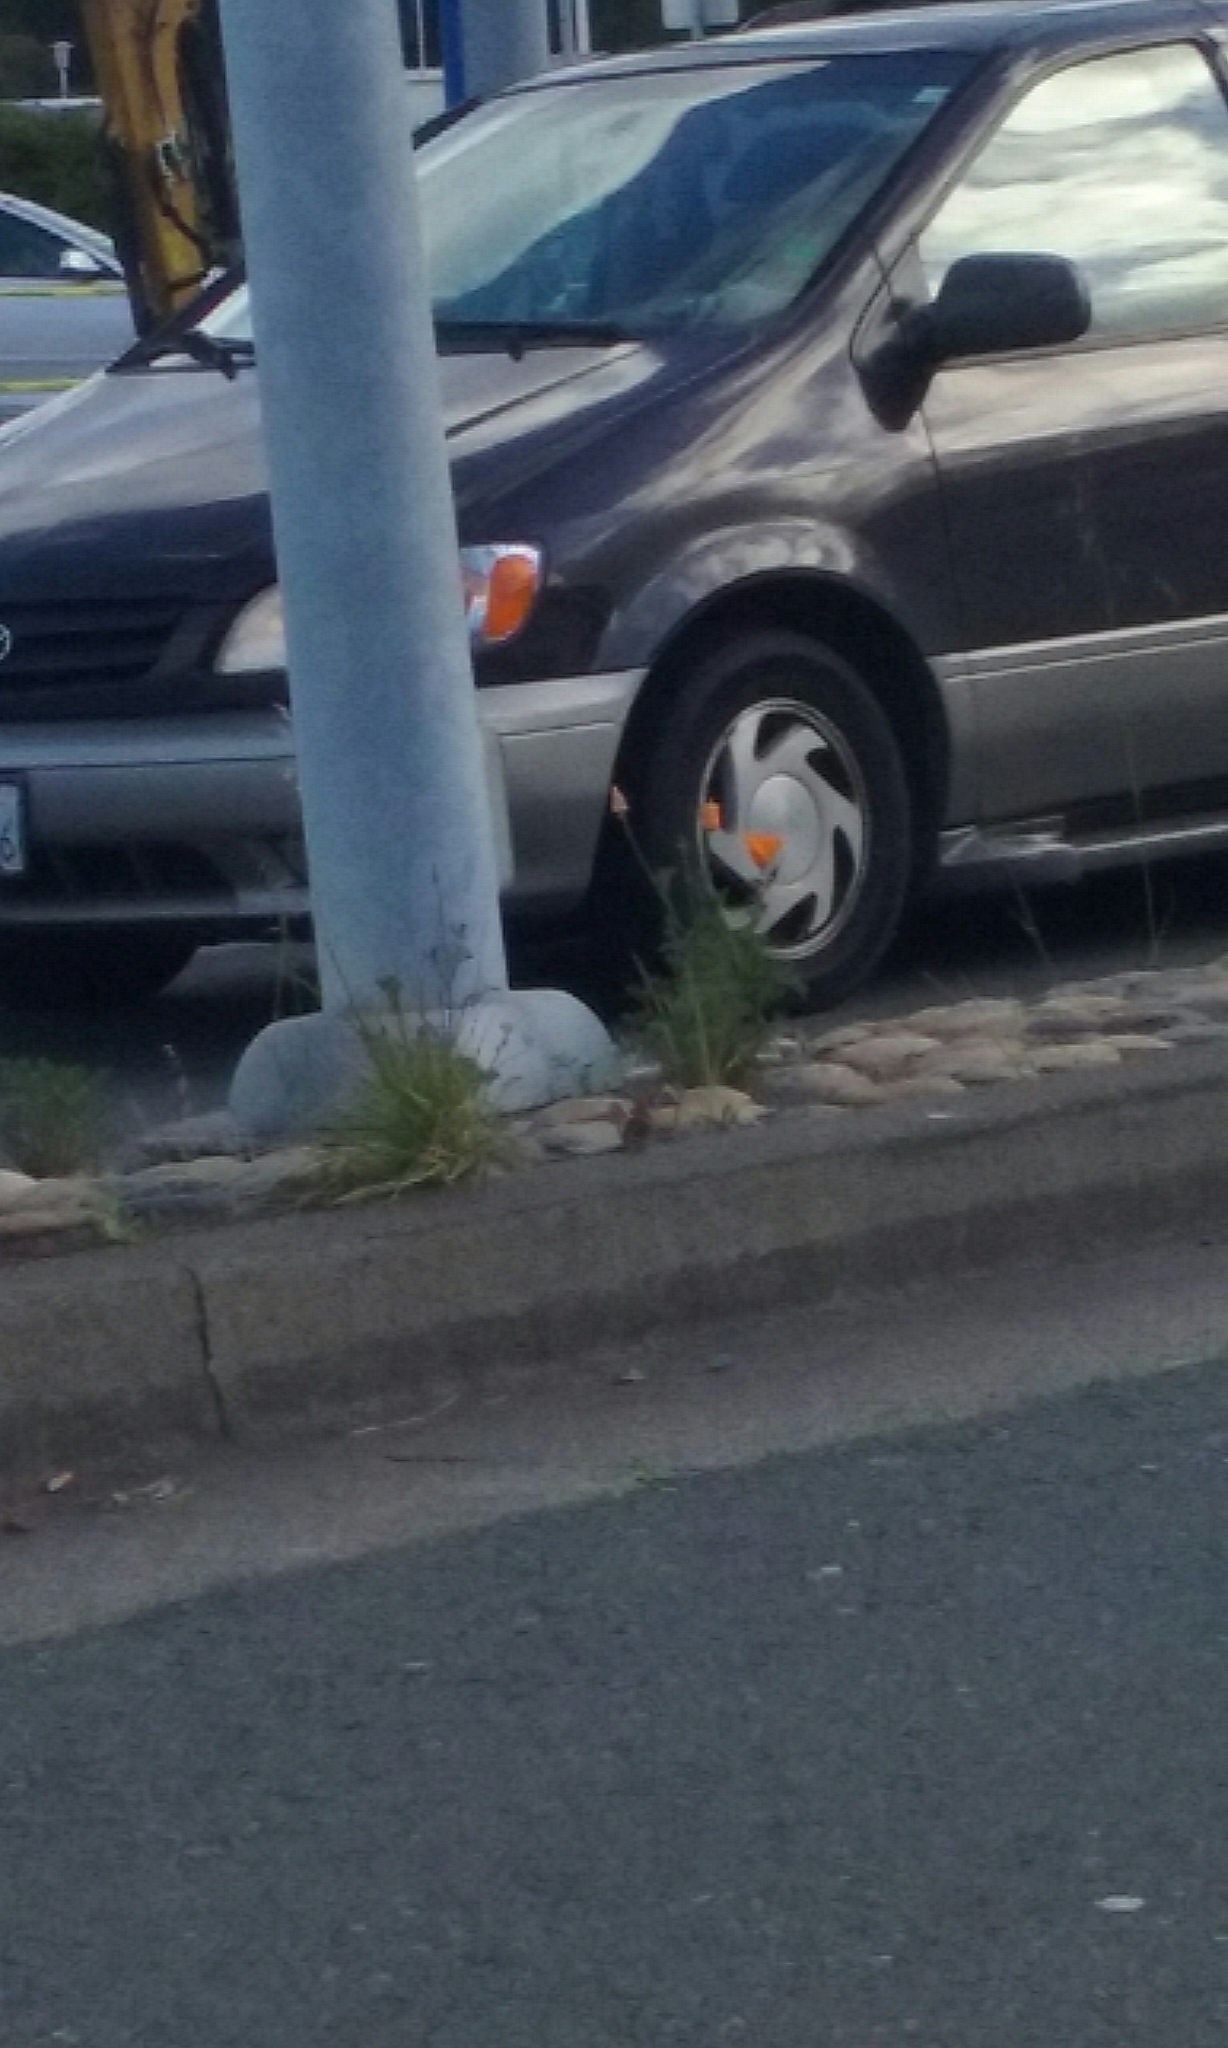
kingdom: Plantae
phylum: Tracheophyta
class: Magnoliopsida
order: Ranunculales
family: Papaveraceae
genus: Eschscholzia
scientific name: Eschscholzia californica
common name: California poppy
